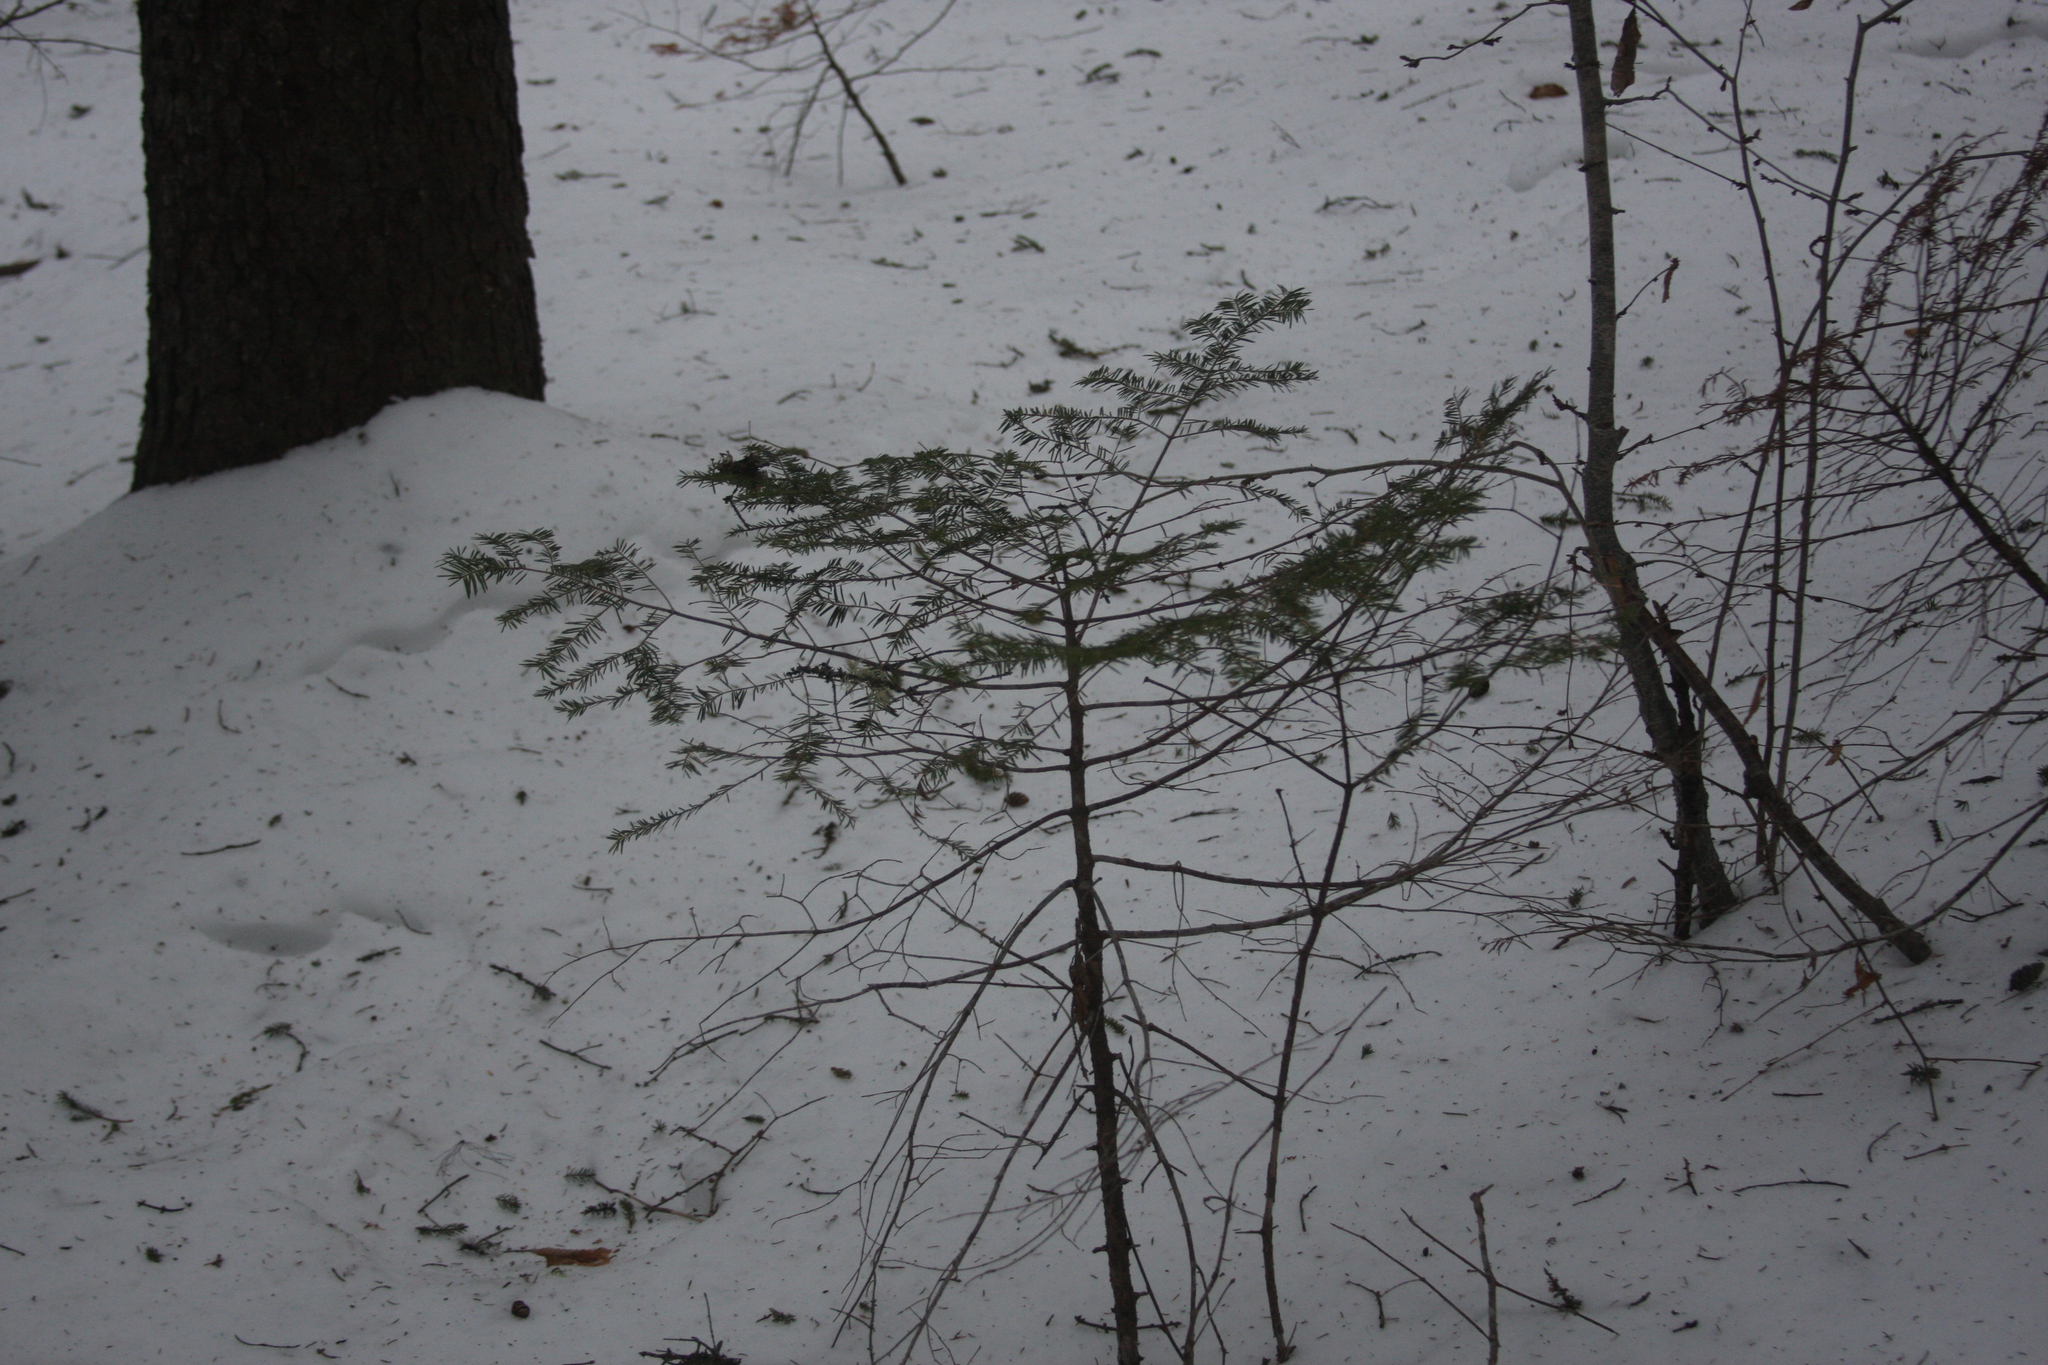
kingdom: Plantae
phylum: Tracheophyta
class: Pinopsida
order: Pinales
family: Pinaceae
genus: Abies
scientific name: Abies balsamea
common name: Balsam fir
